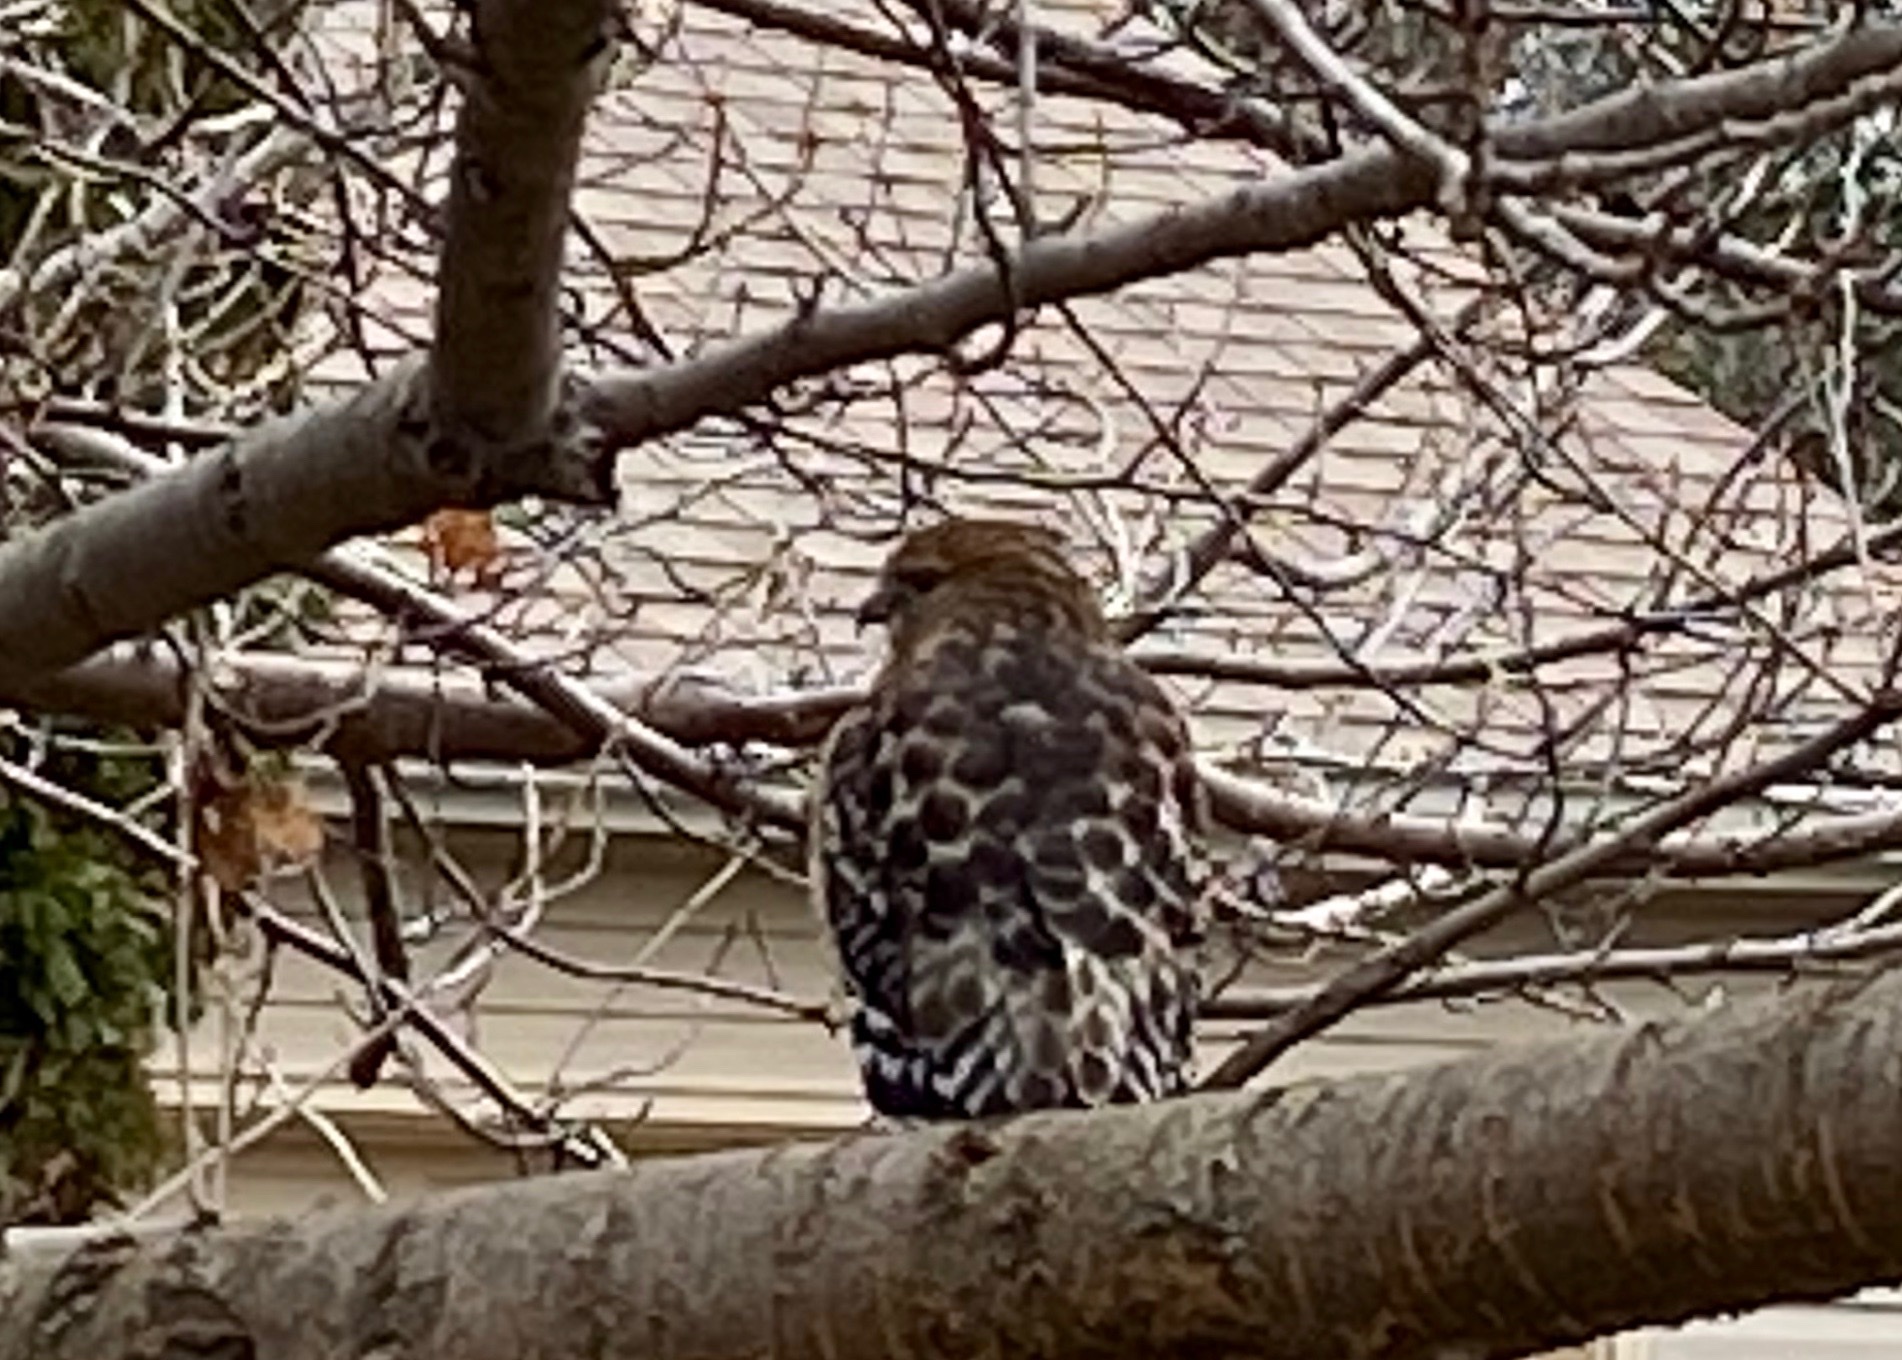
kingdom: Animalia
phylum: Chordata
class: Aves
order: Accipitriformes
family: Accipitridae
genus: Buteo
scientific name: Buteo lineatus
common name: Red-shouldered hawk
